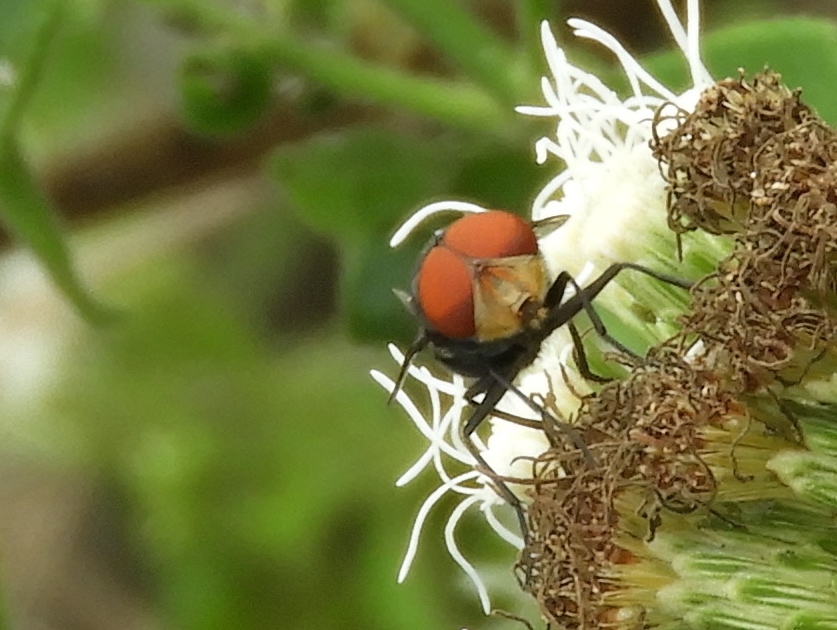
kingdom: Animalia
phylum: Arthropoda
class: Insecta
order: Diptera
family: Calliphoridae
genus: Chrysomya
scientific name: Chrysomya megacephala
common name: Blow fly
